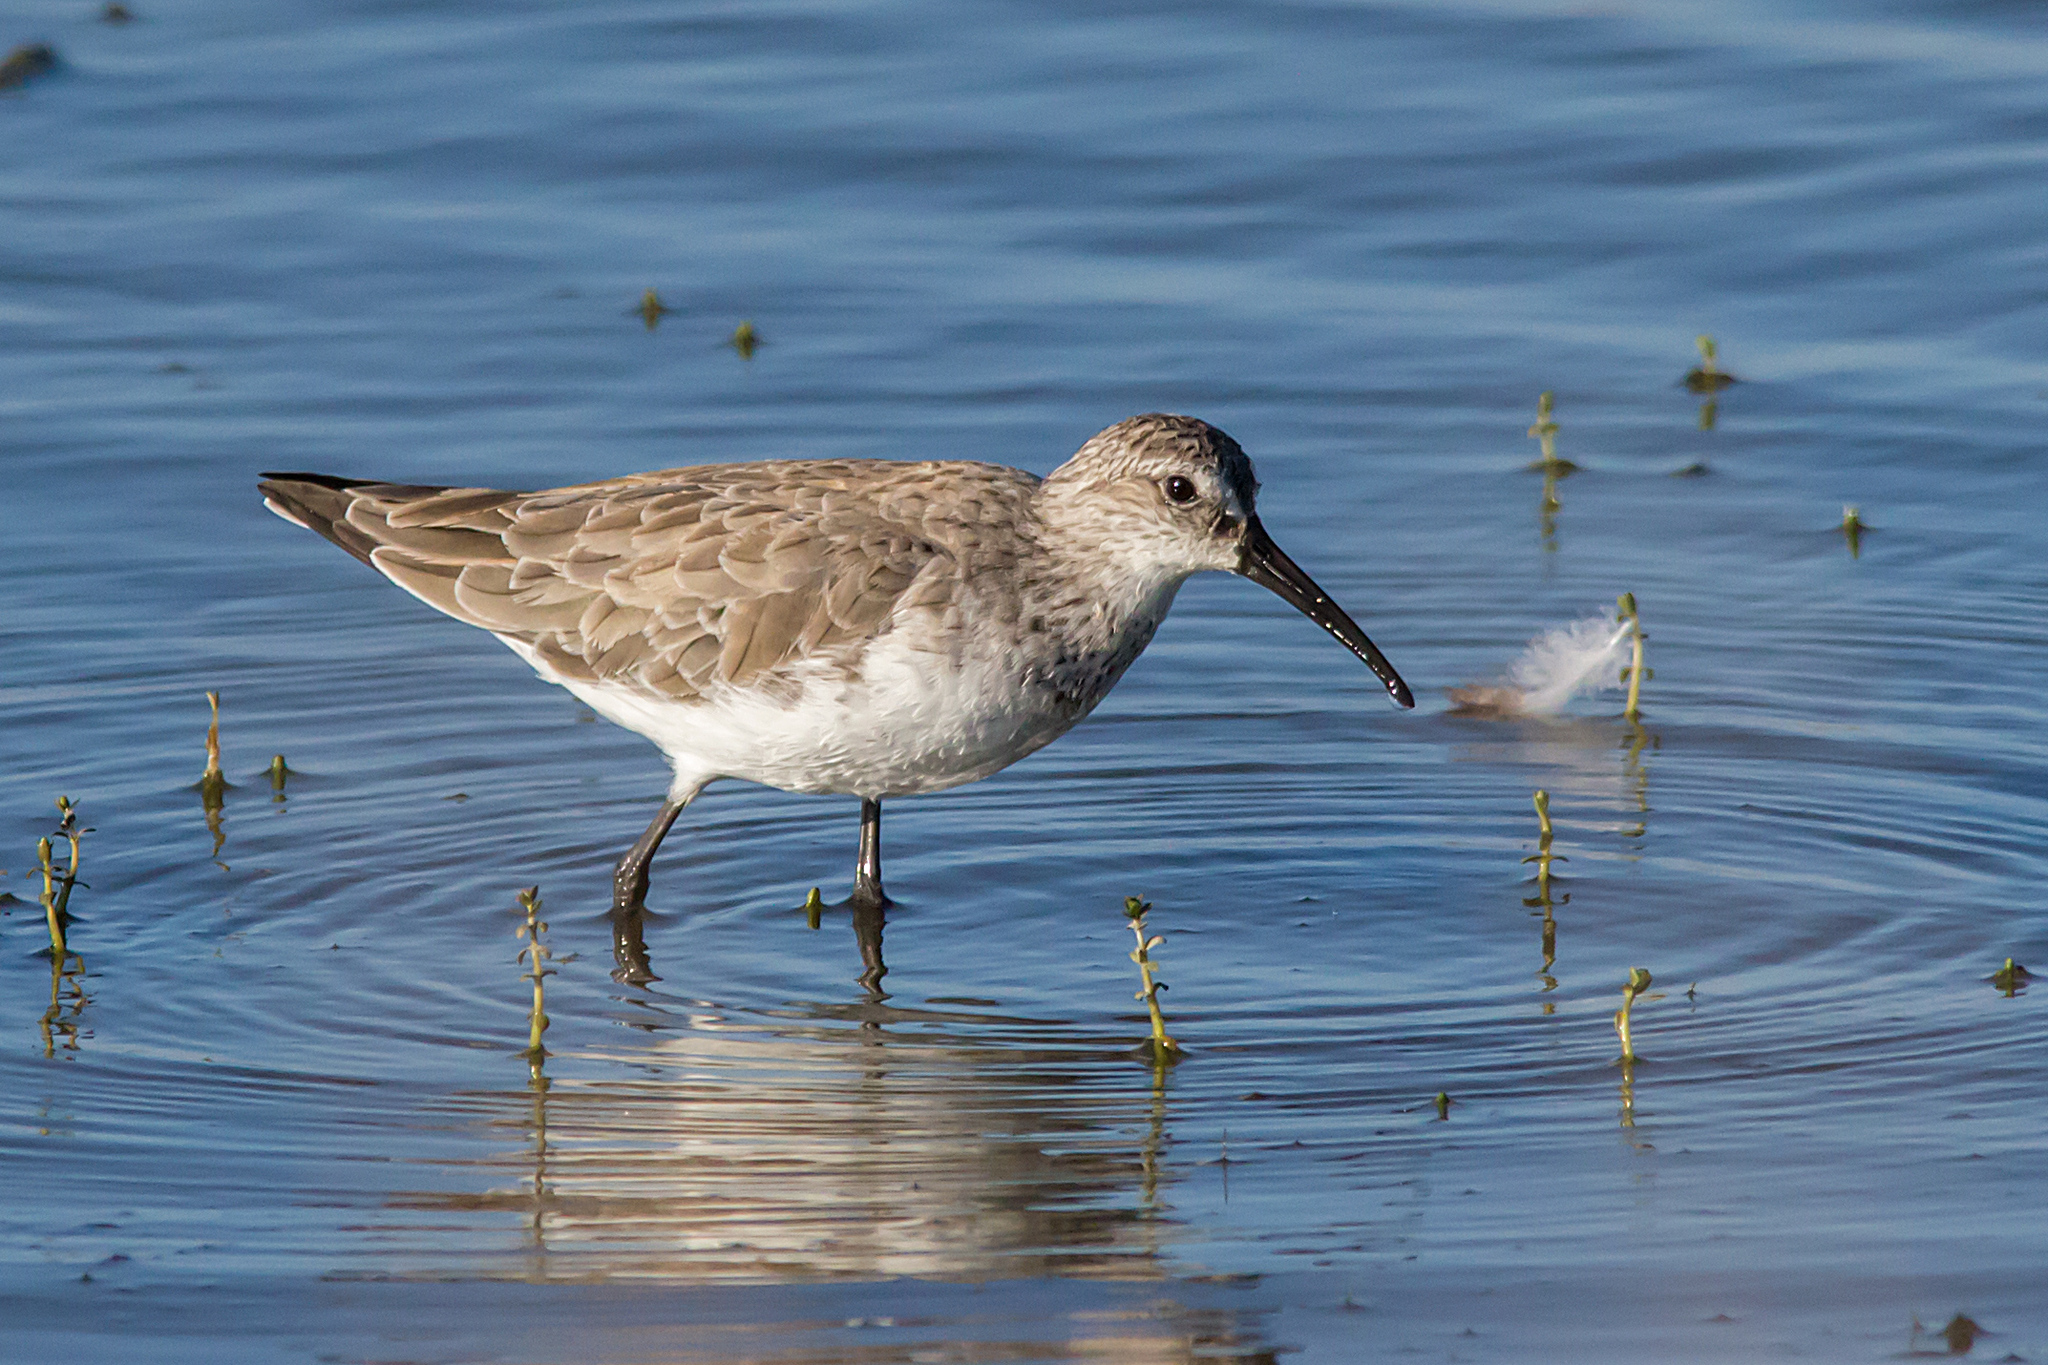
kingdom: Animalia
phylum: Chordata
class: Aves
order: Charadriiformes
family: Scolopacidae
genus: Calidris
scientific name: Calidris ferruginea
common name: Curlew sandpiper
